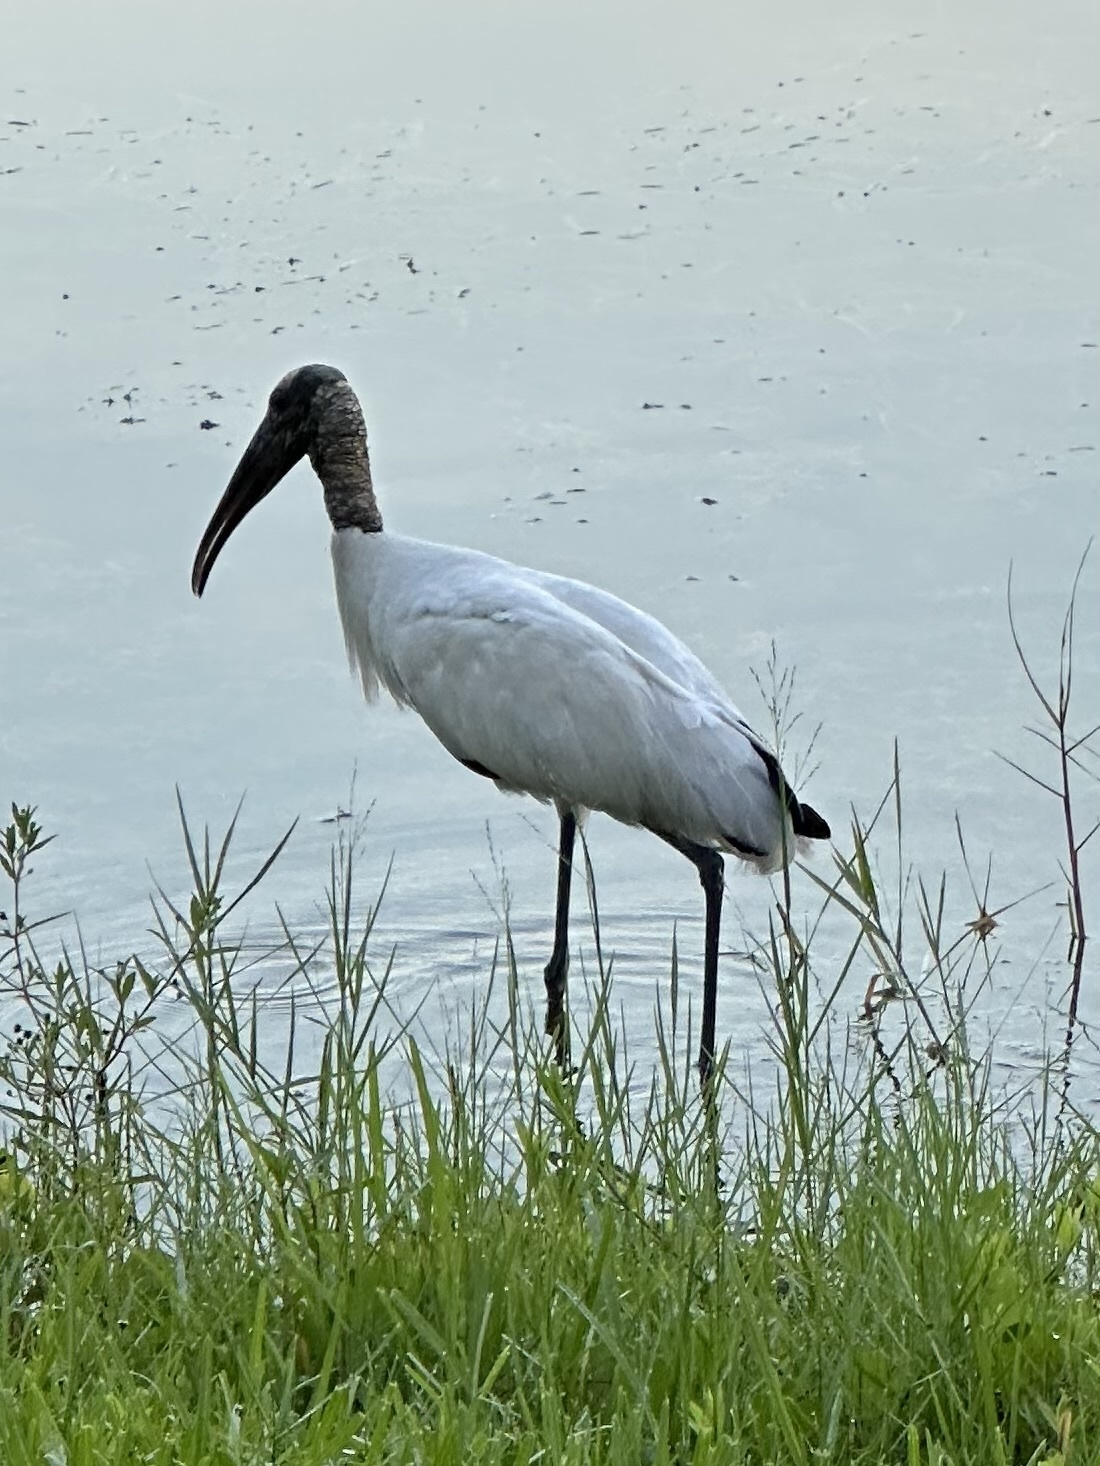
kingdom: Animalia
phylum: Chordata
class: Aves
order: Ciconiiformes
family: Ciconiidae
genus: Mycteria
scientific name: Mycteria americana
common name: Wood stork
